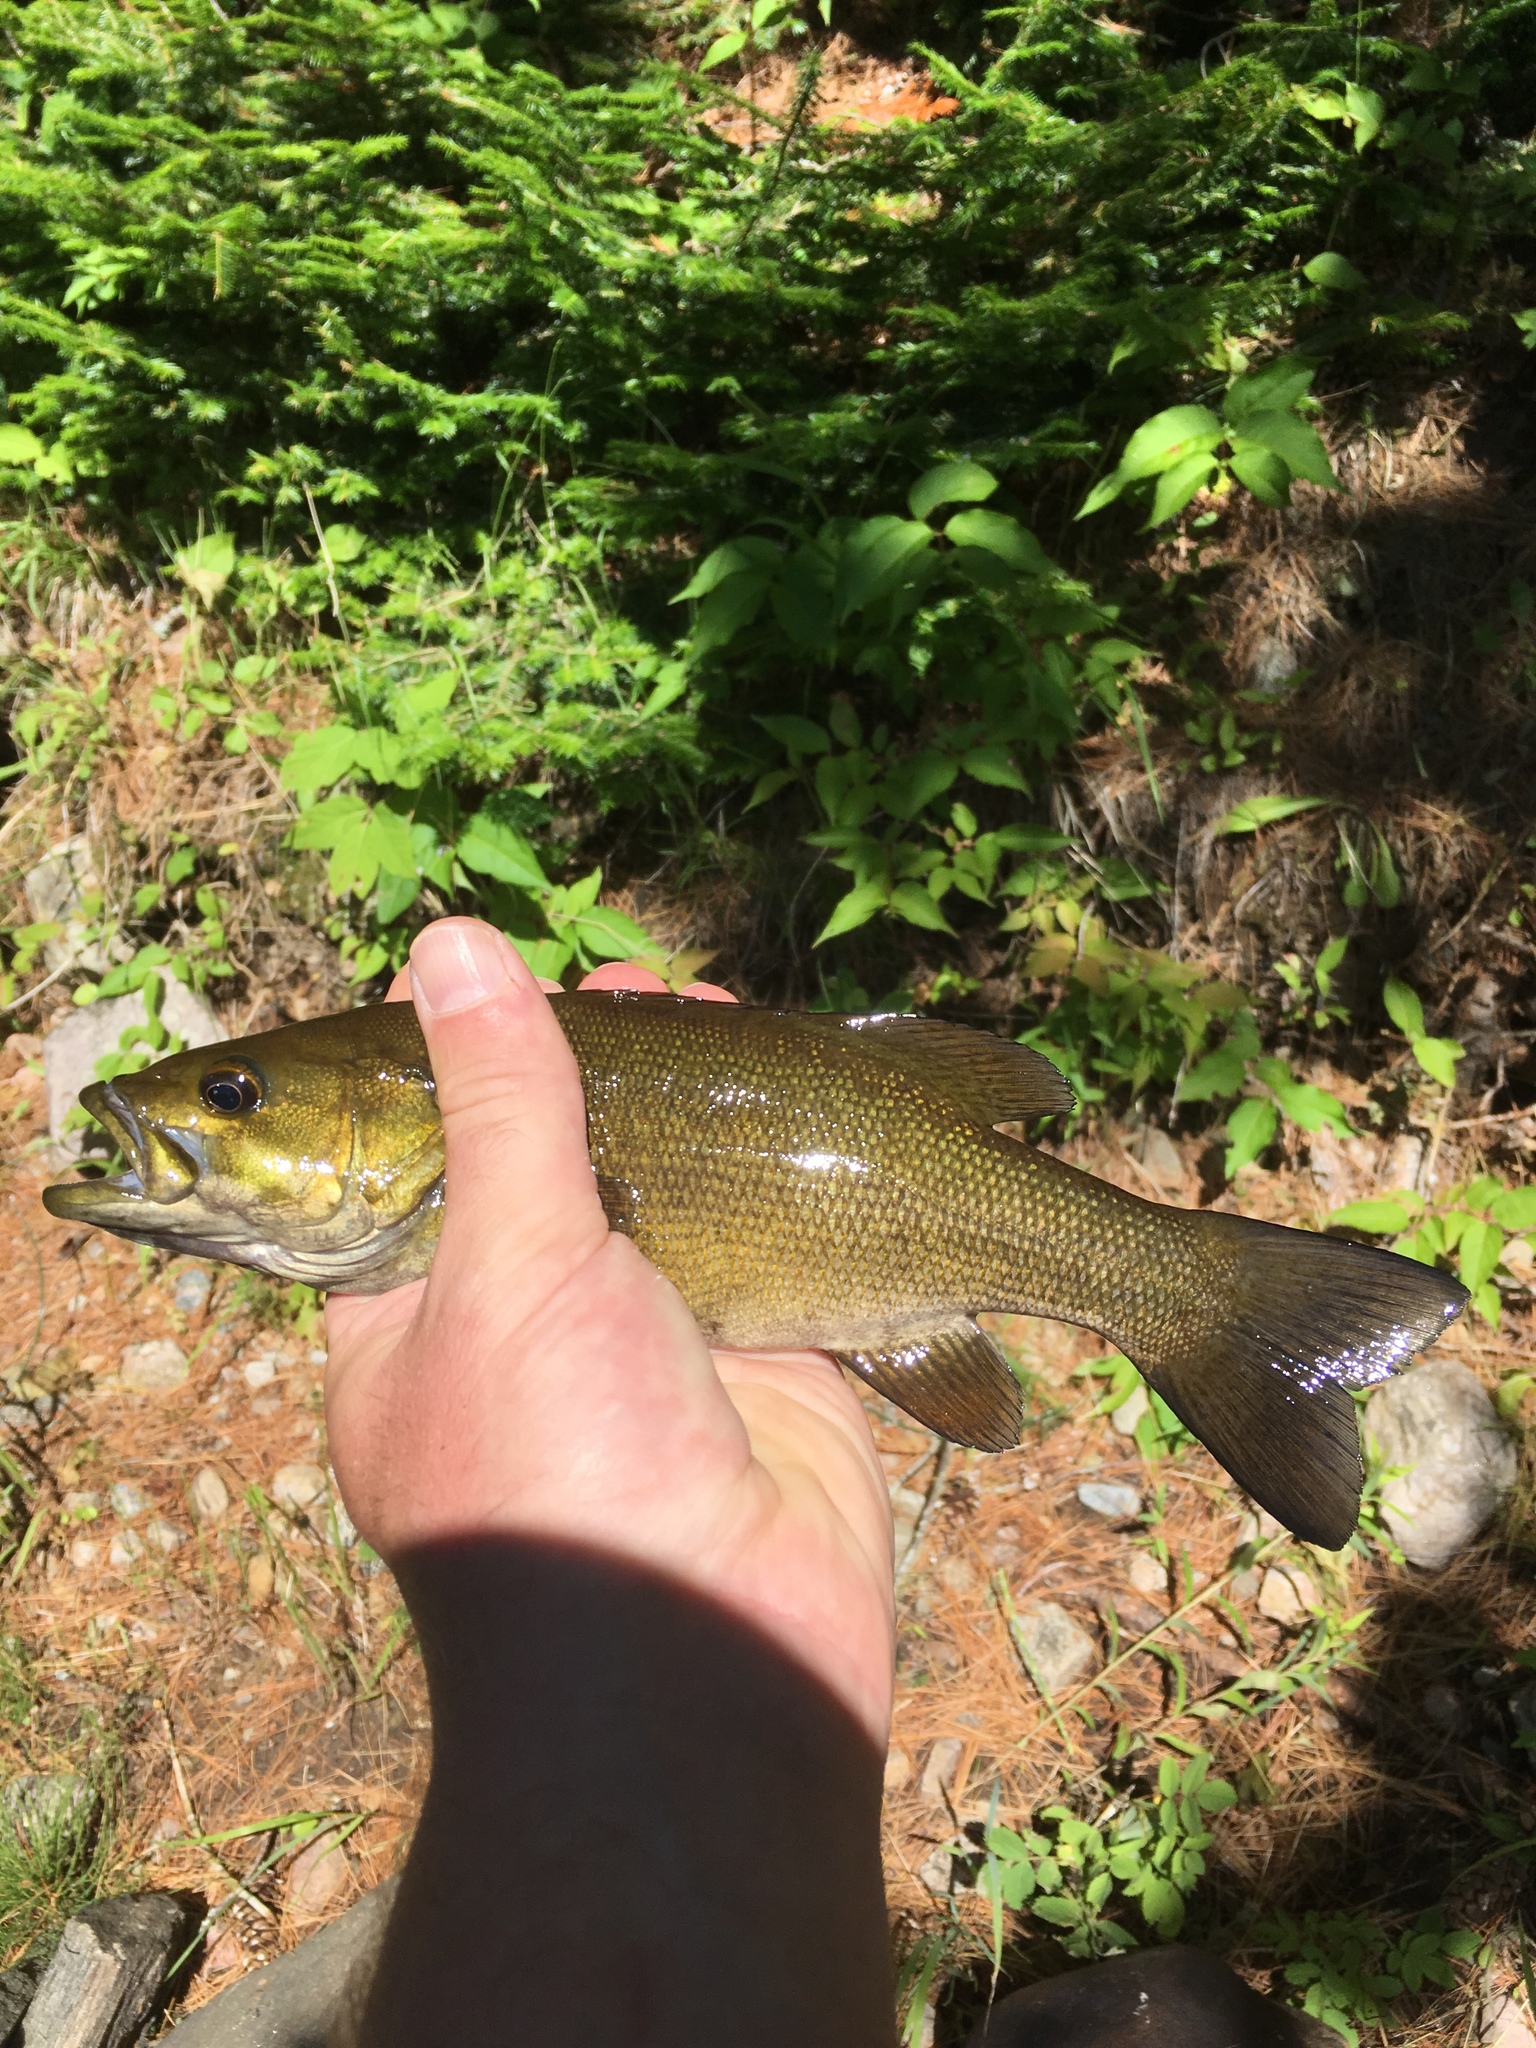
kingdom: Animalia
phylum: Chordata
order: Perciformes
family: Centrarchidae
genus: Micropterus
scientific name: Micropterus dolomieu
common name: Smallmouth bass
